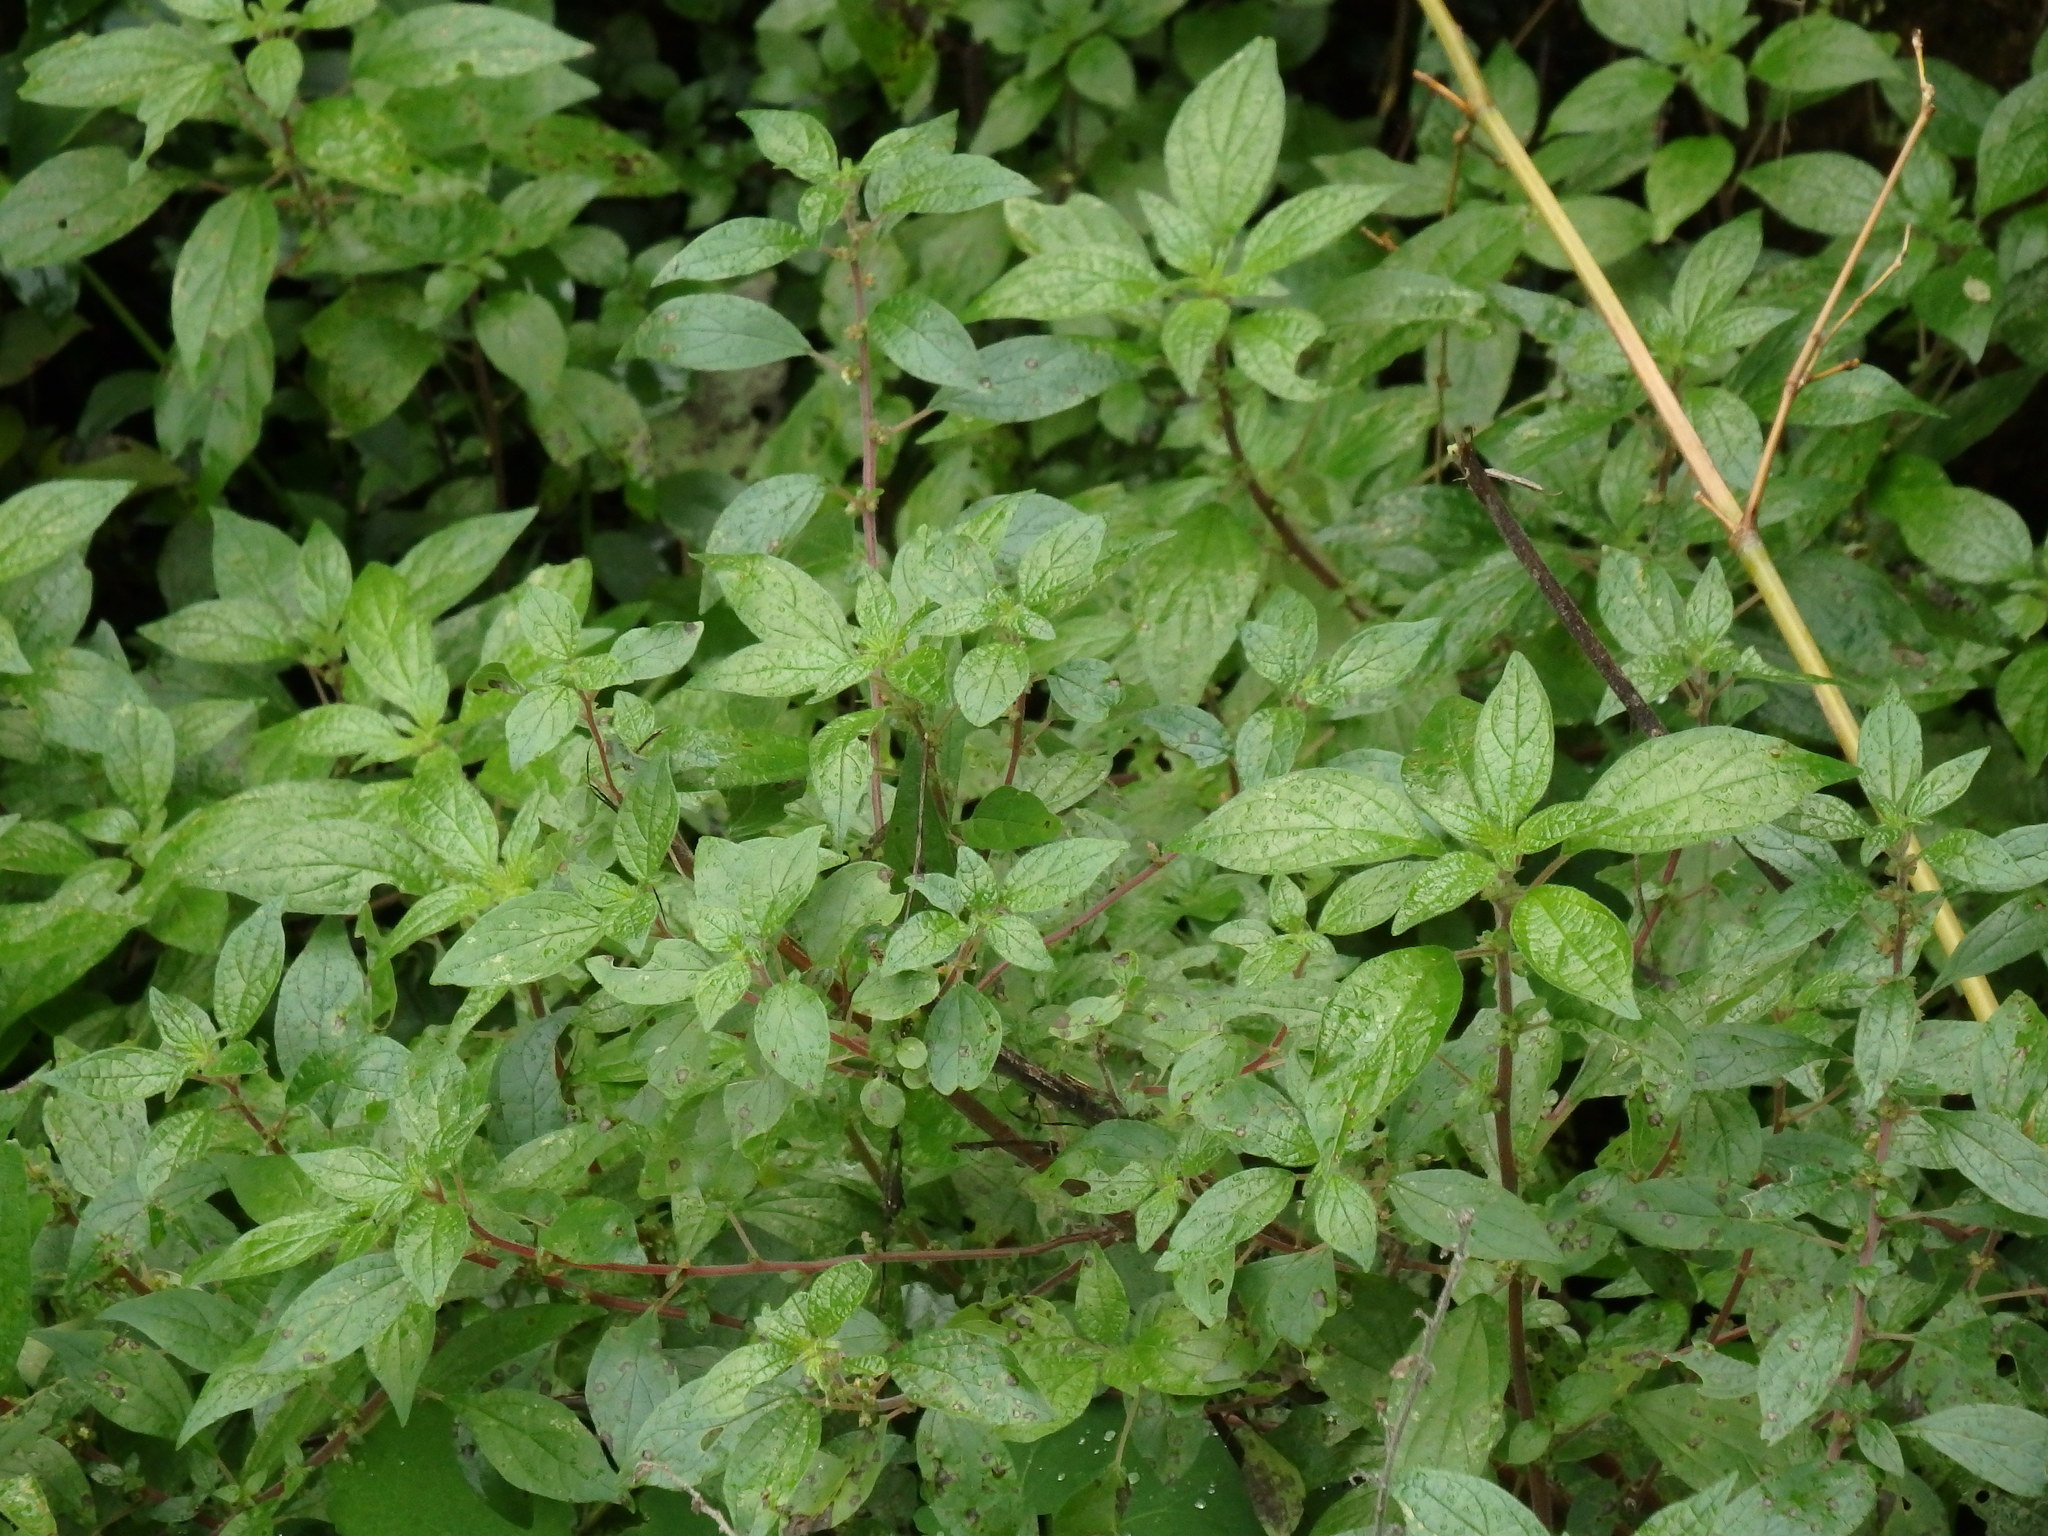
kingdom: Plantae
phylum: Tracheophyta
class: Magnoliopsida
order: Rosales
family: Urticaceae
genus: Parietaria
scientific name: Parietaria judaica
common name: Pellitory-of-the-wall
